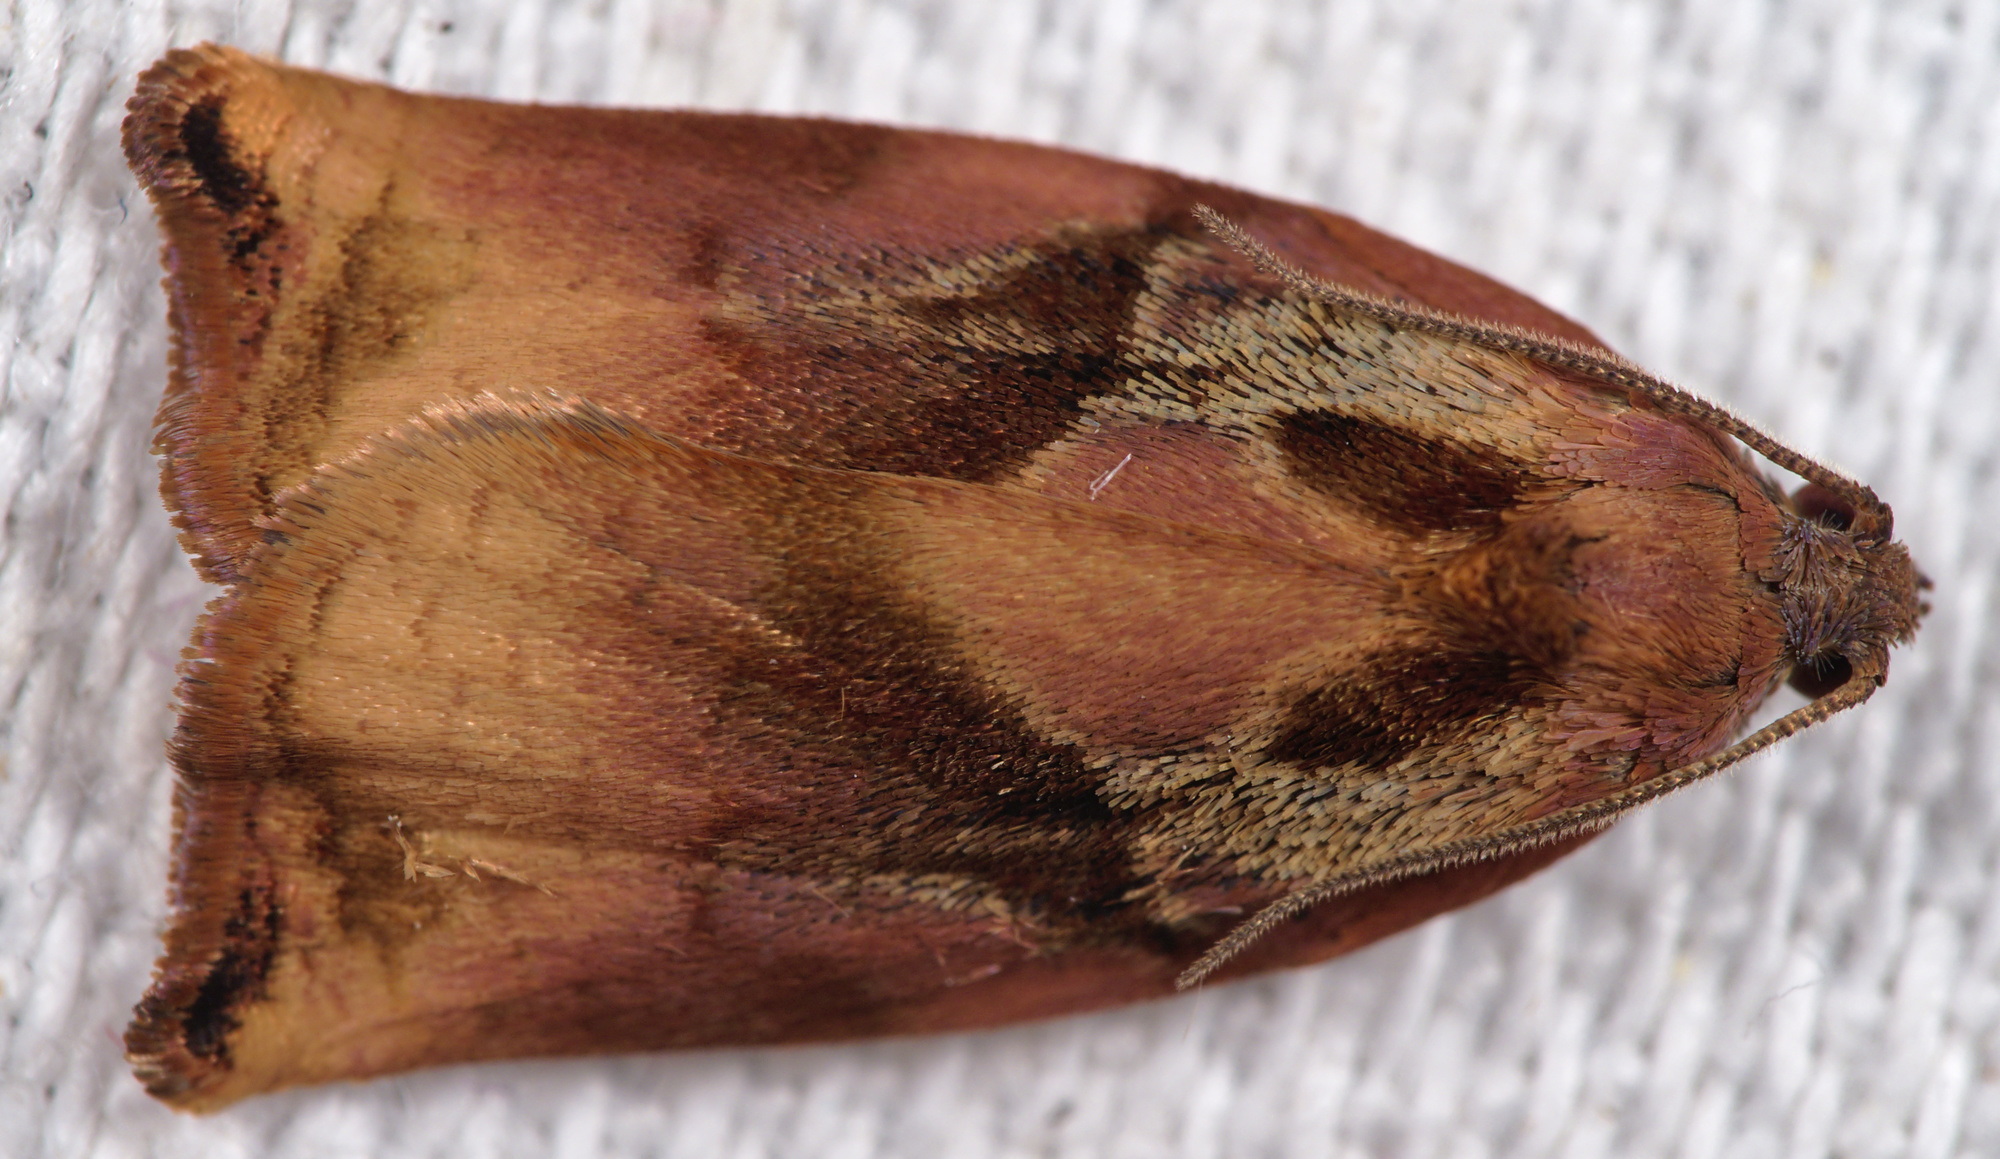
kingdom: Animalia
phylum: Arthropoda
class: Insecta
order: Lepidoptera
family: Tortricidae
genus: Archips
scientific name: Archips podana
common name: Large fruit-tree tortrix
